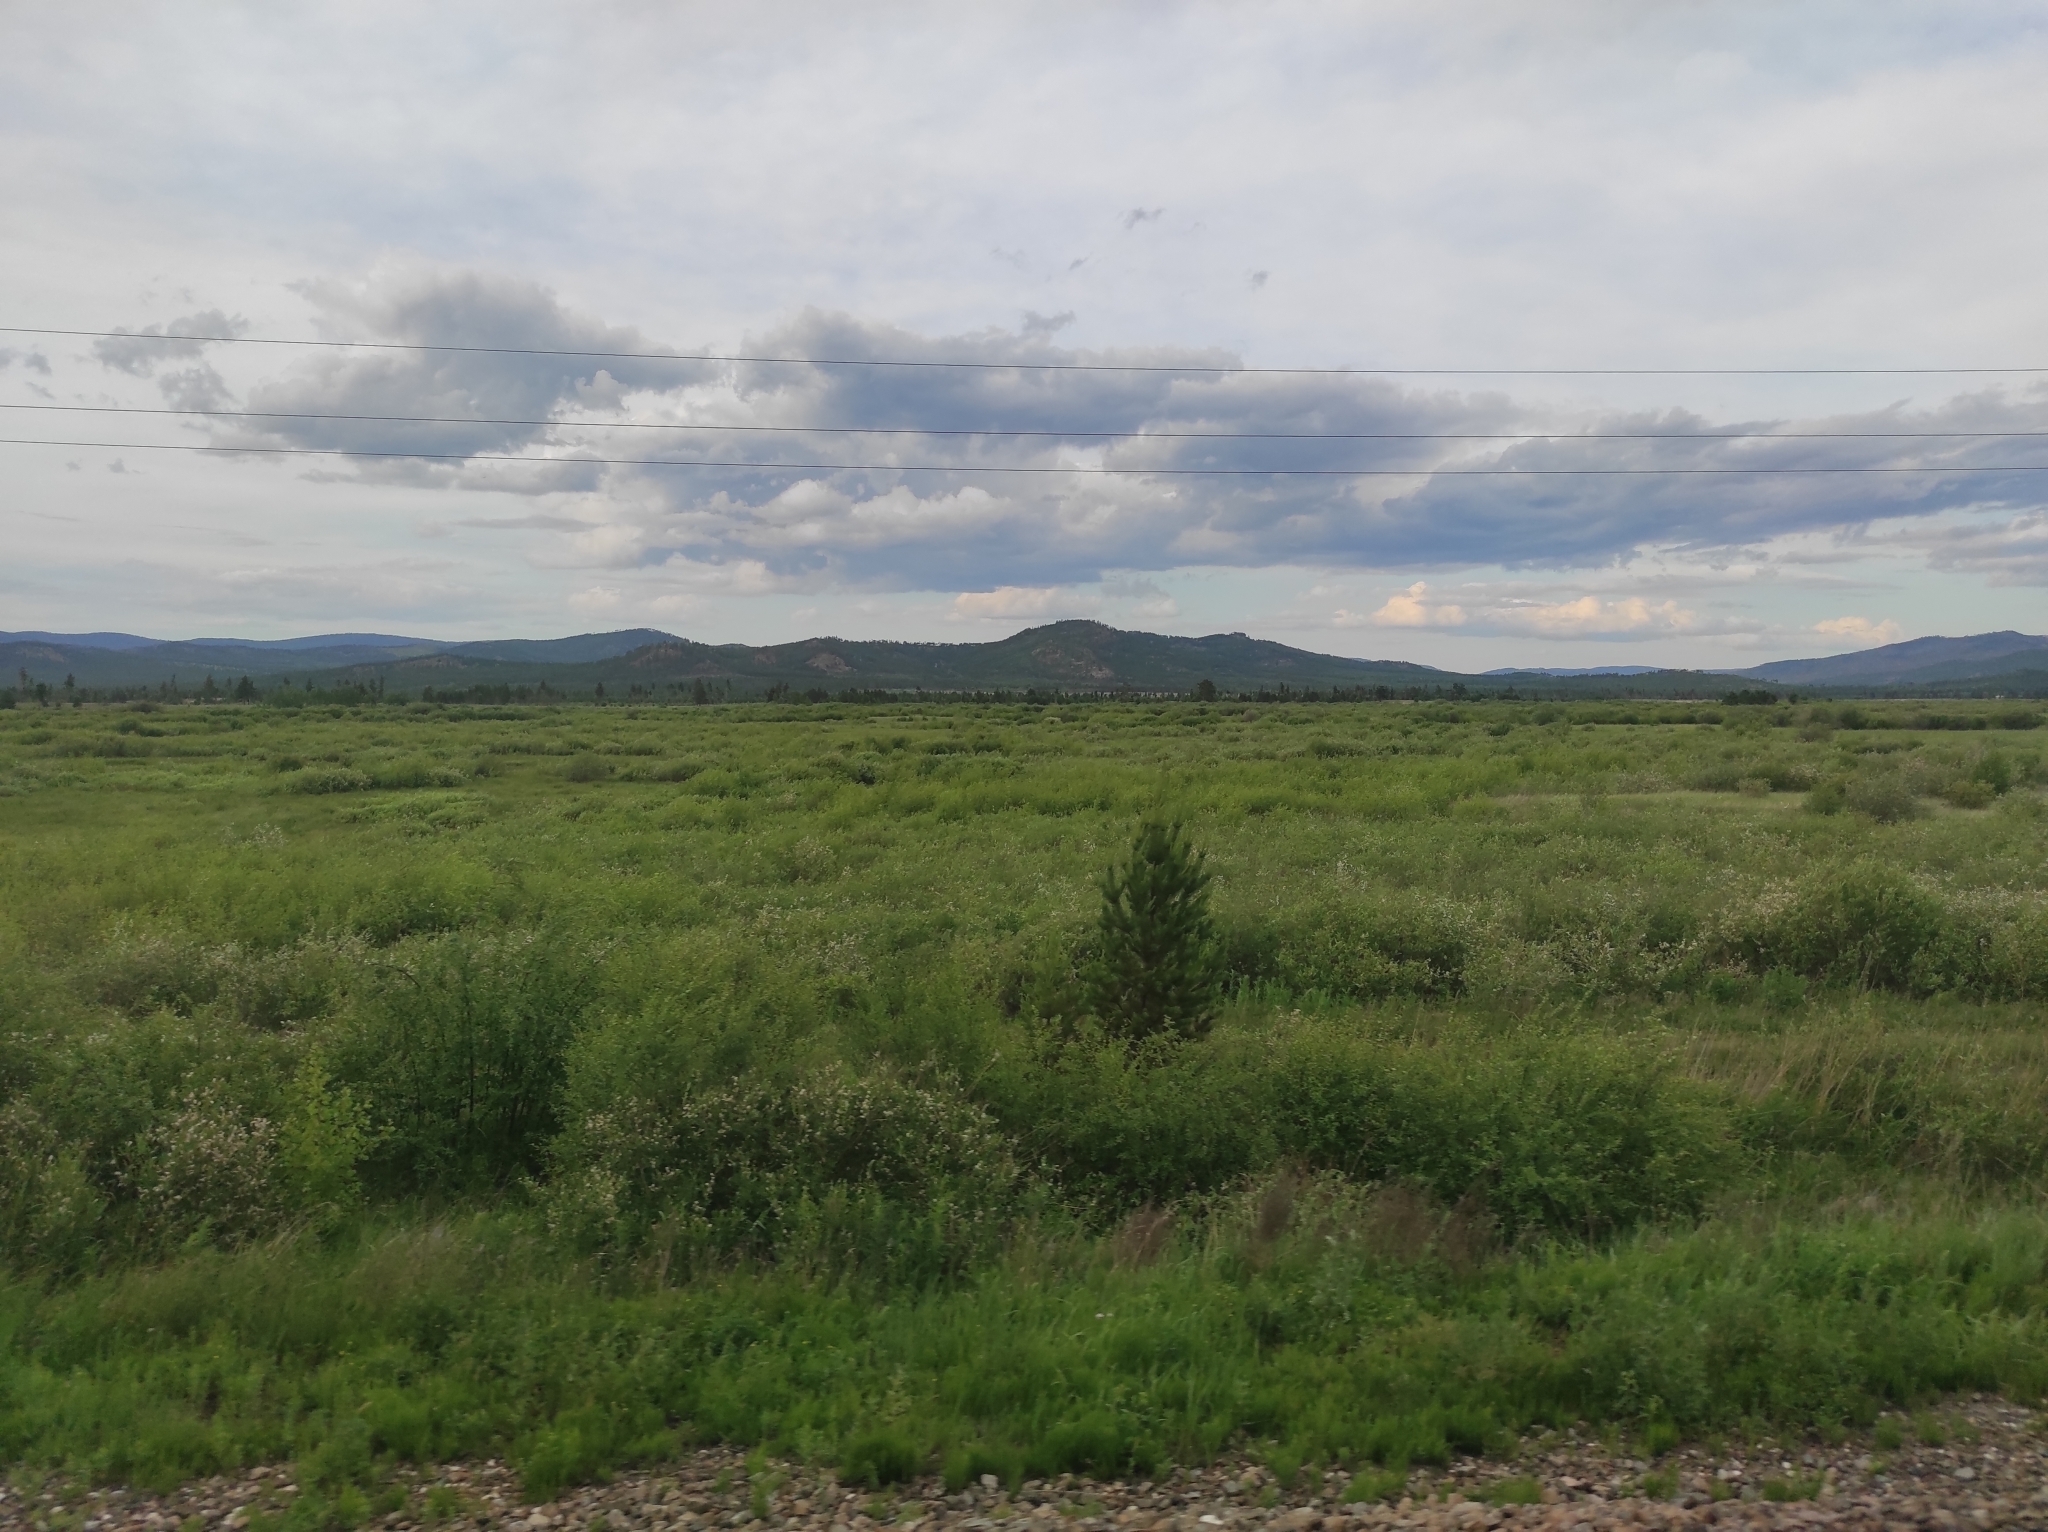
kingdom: Plantae
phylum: Tracheophyta
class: Pinopsida
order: Pinales
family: Pinaceae
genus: Pinus
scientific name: Pinus sylvestris
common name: Scots pine
